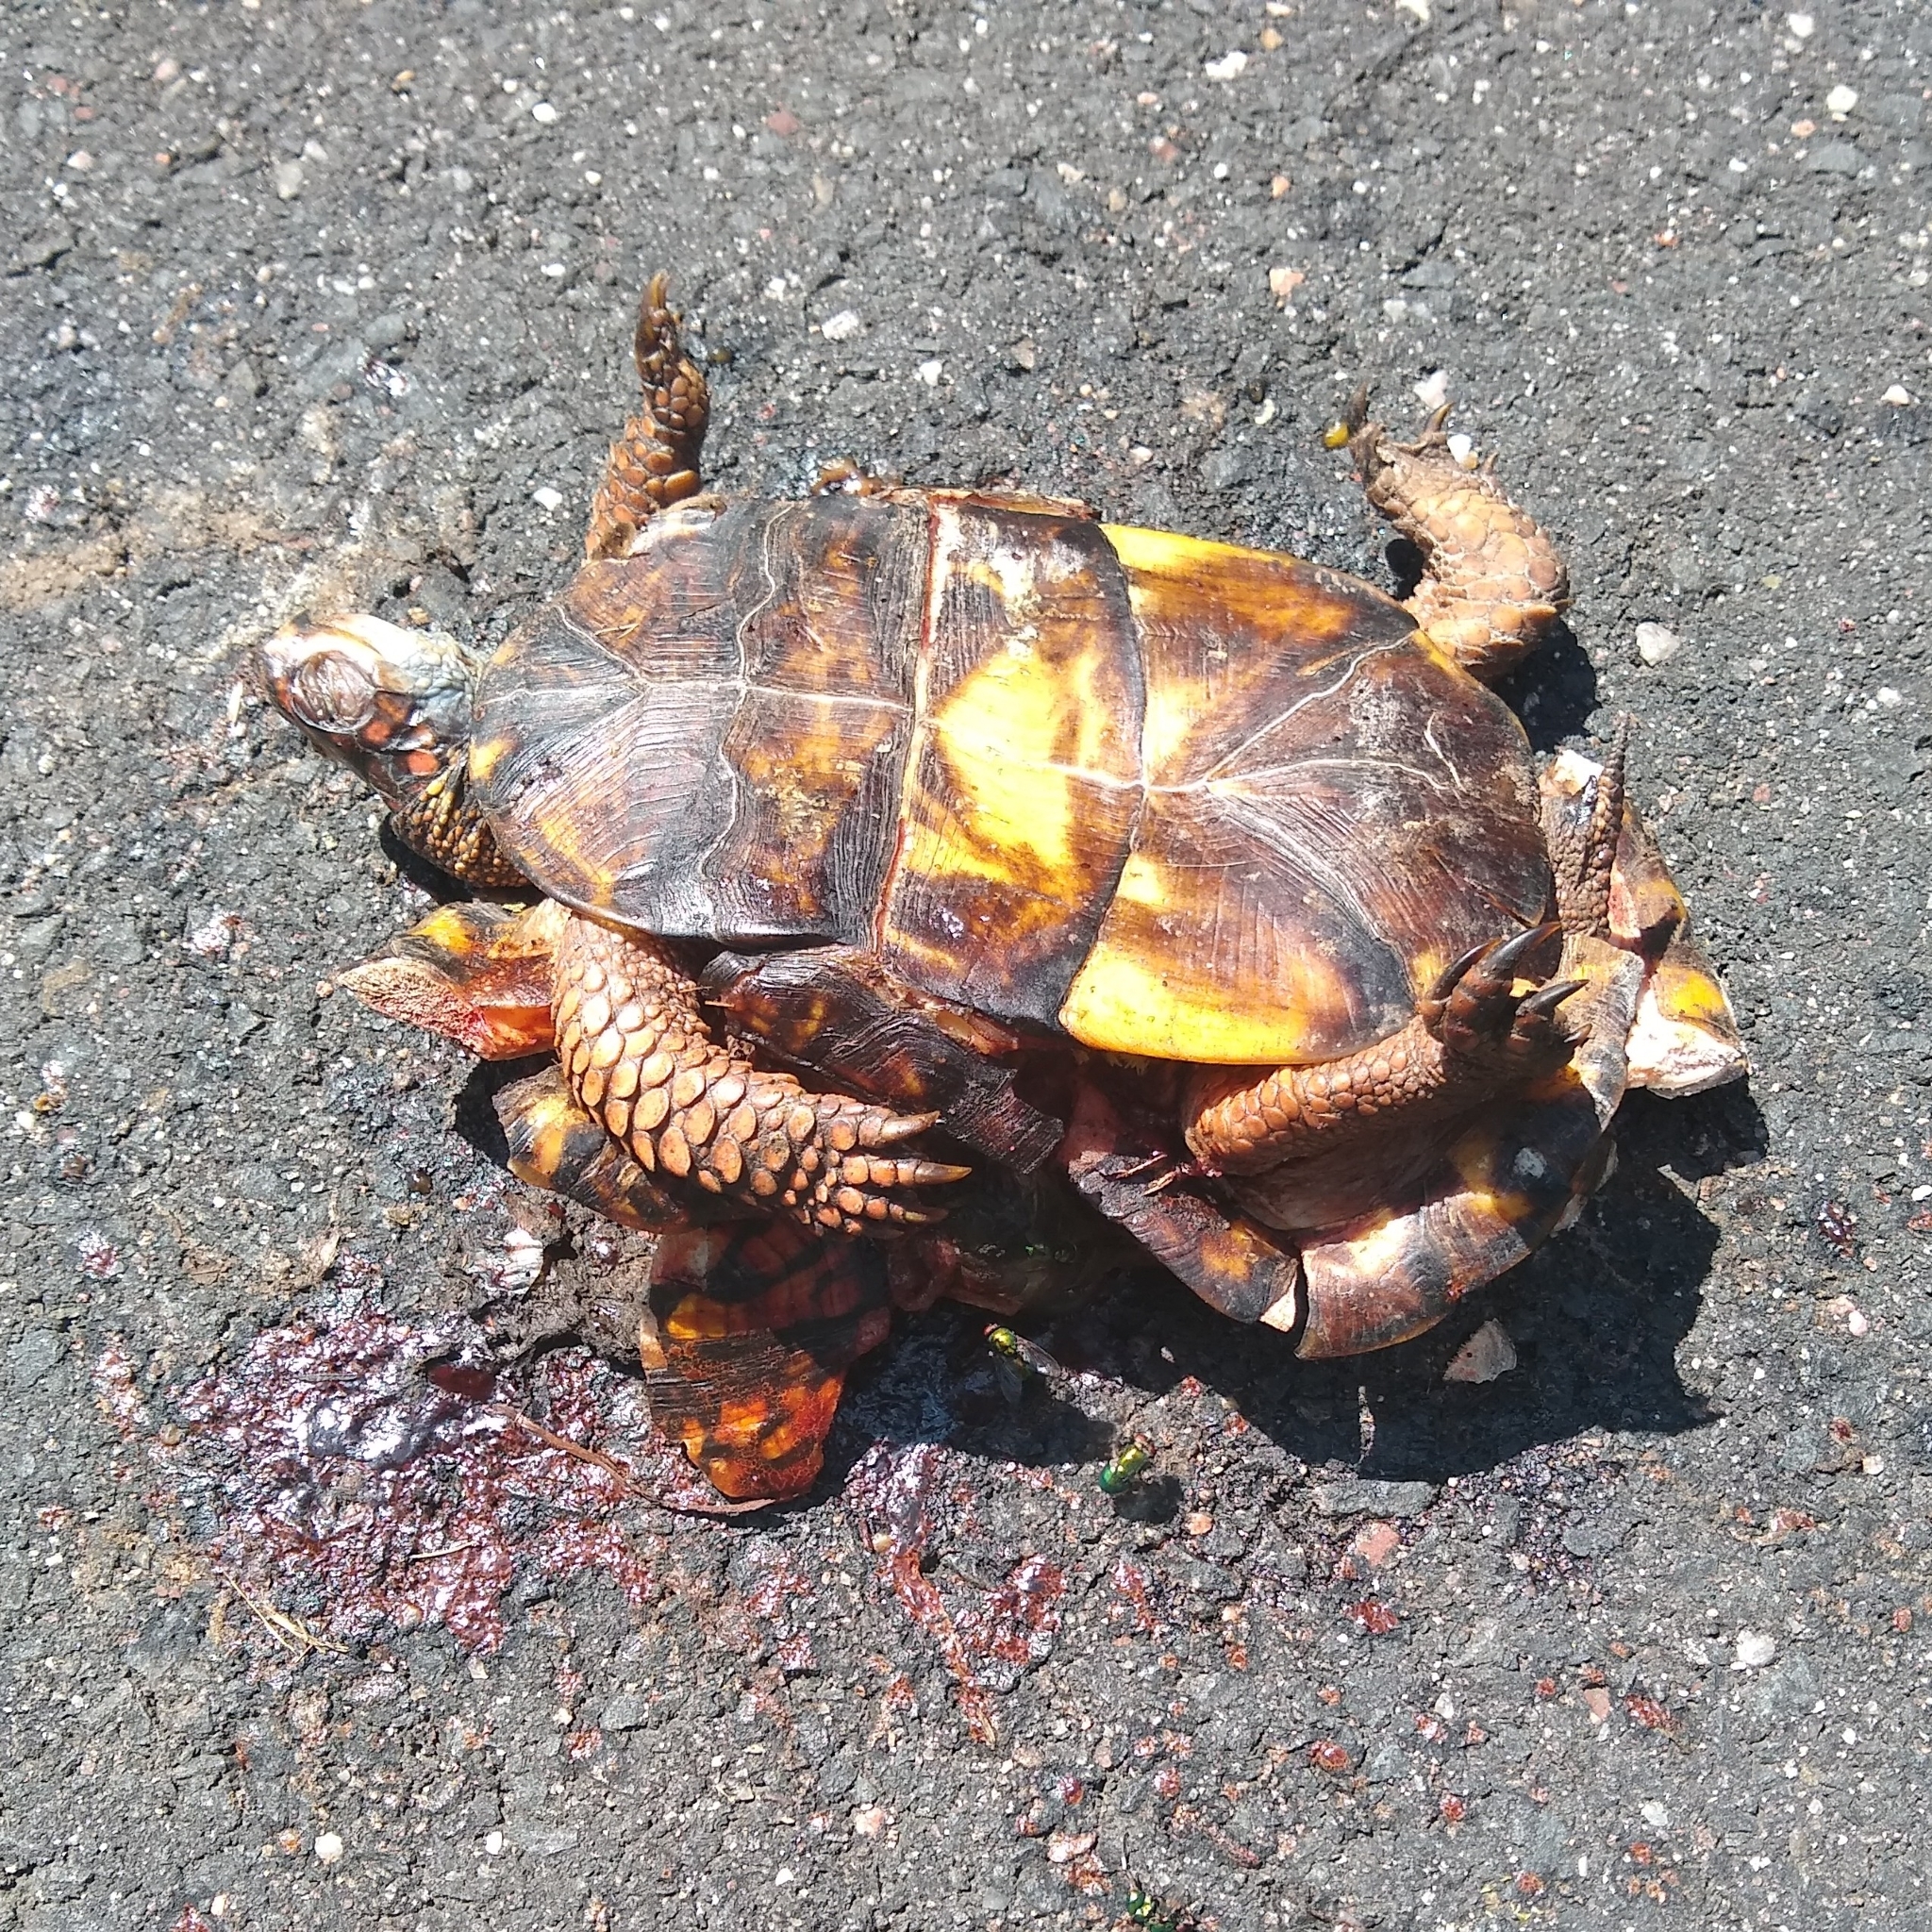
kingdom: Animalia
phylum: Chordata
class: Testudines
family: Emydidae
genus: Terrapene
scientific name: Terrapene carolina
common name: Common box turtle
